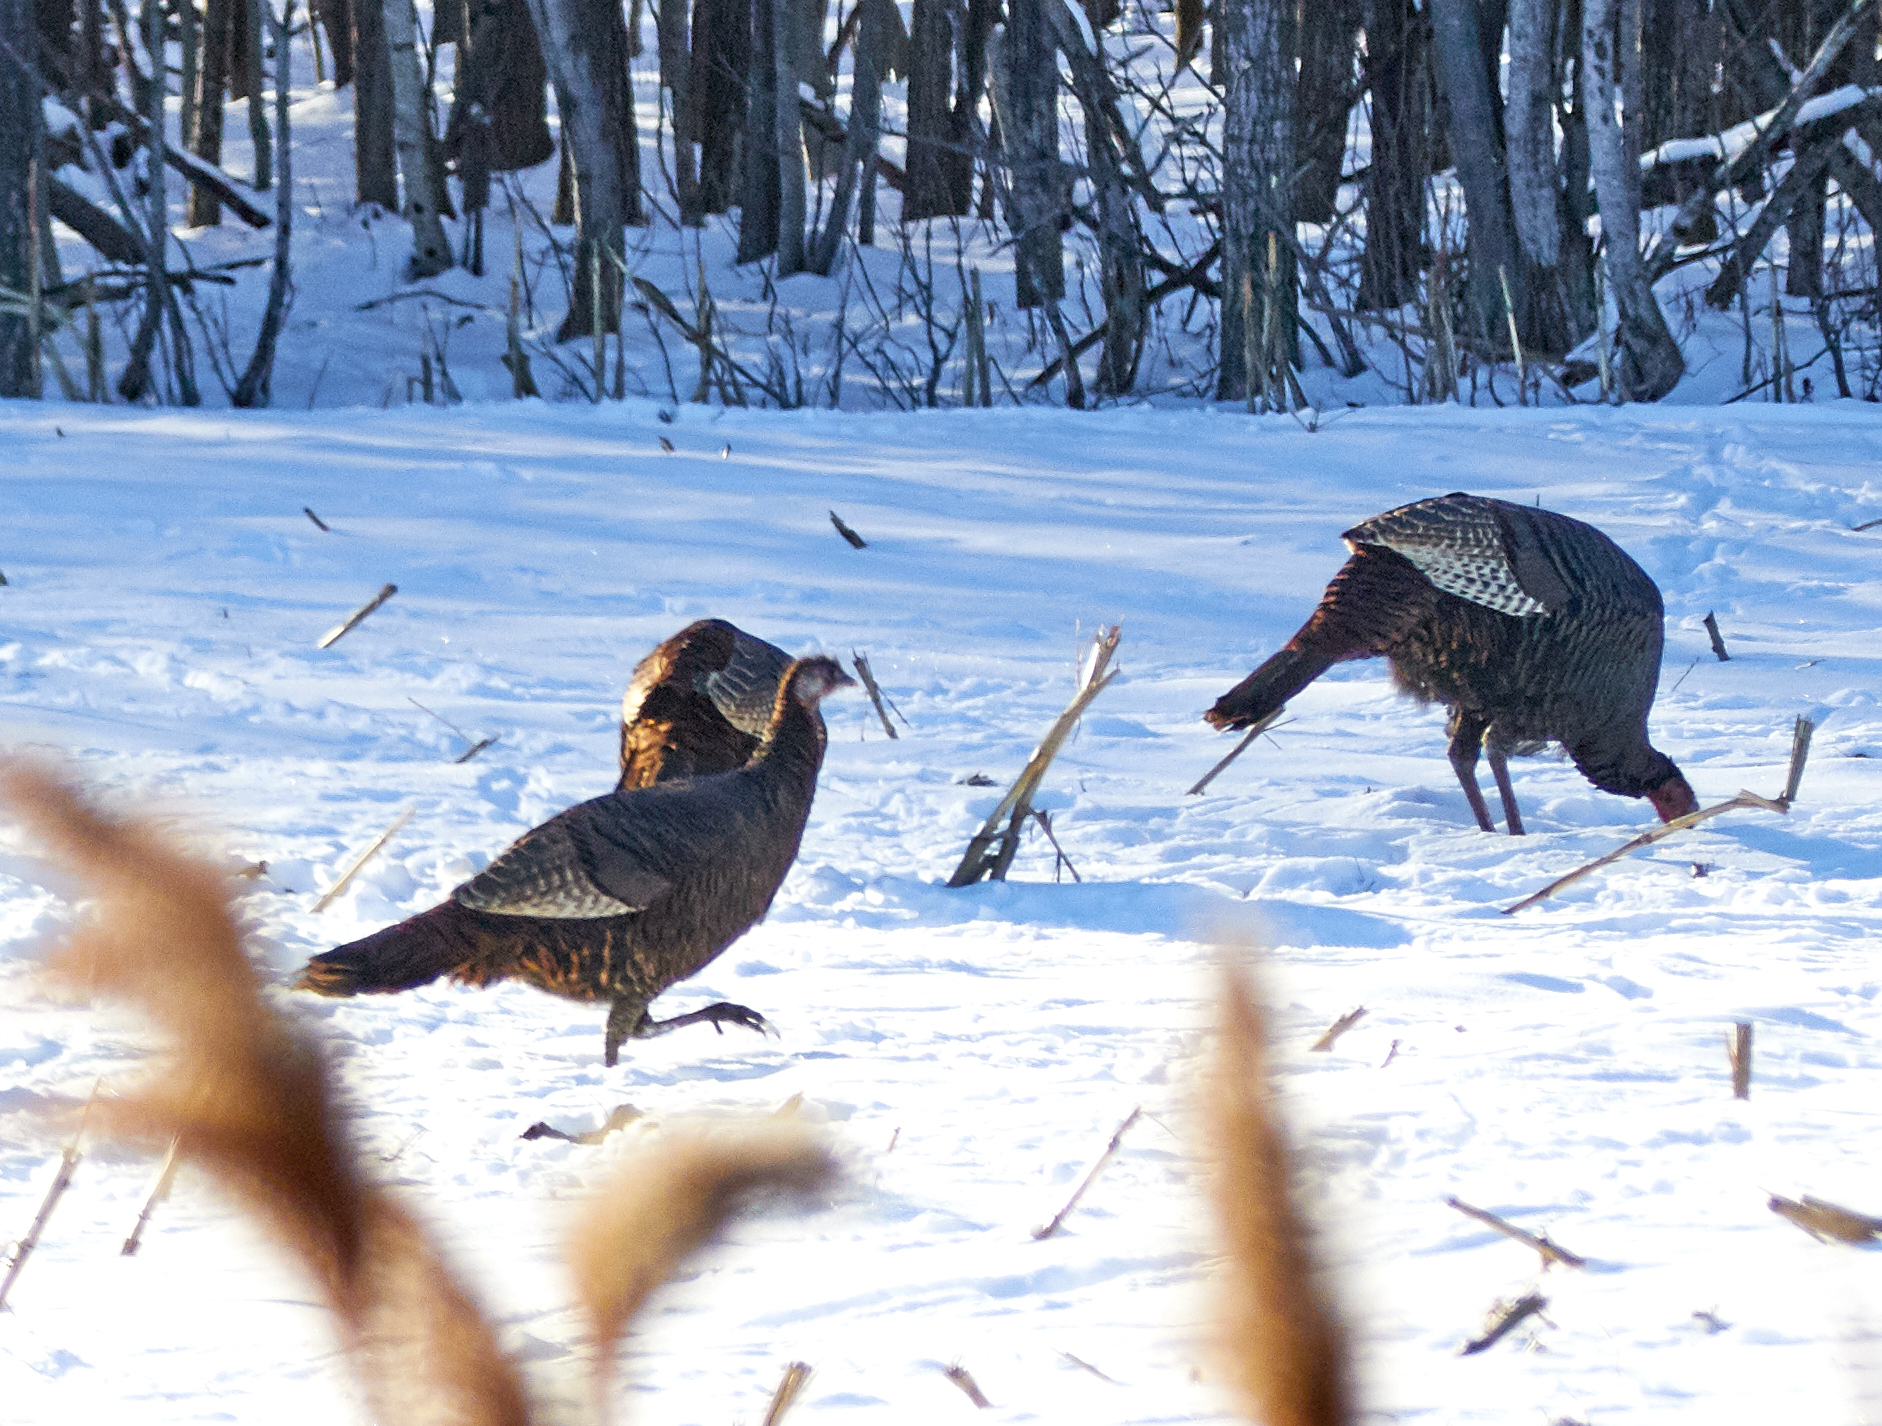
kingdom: Animalia
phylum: Chordata
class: Aves
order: Galliformes
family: Phasianidae
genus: Meleagris
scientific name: Meleagris gallopavo
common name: Wild turkey
